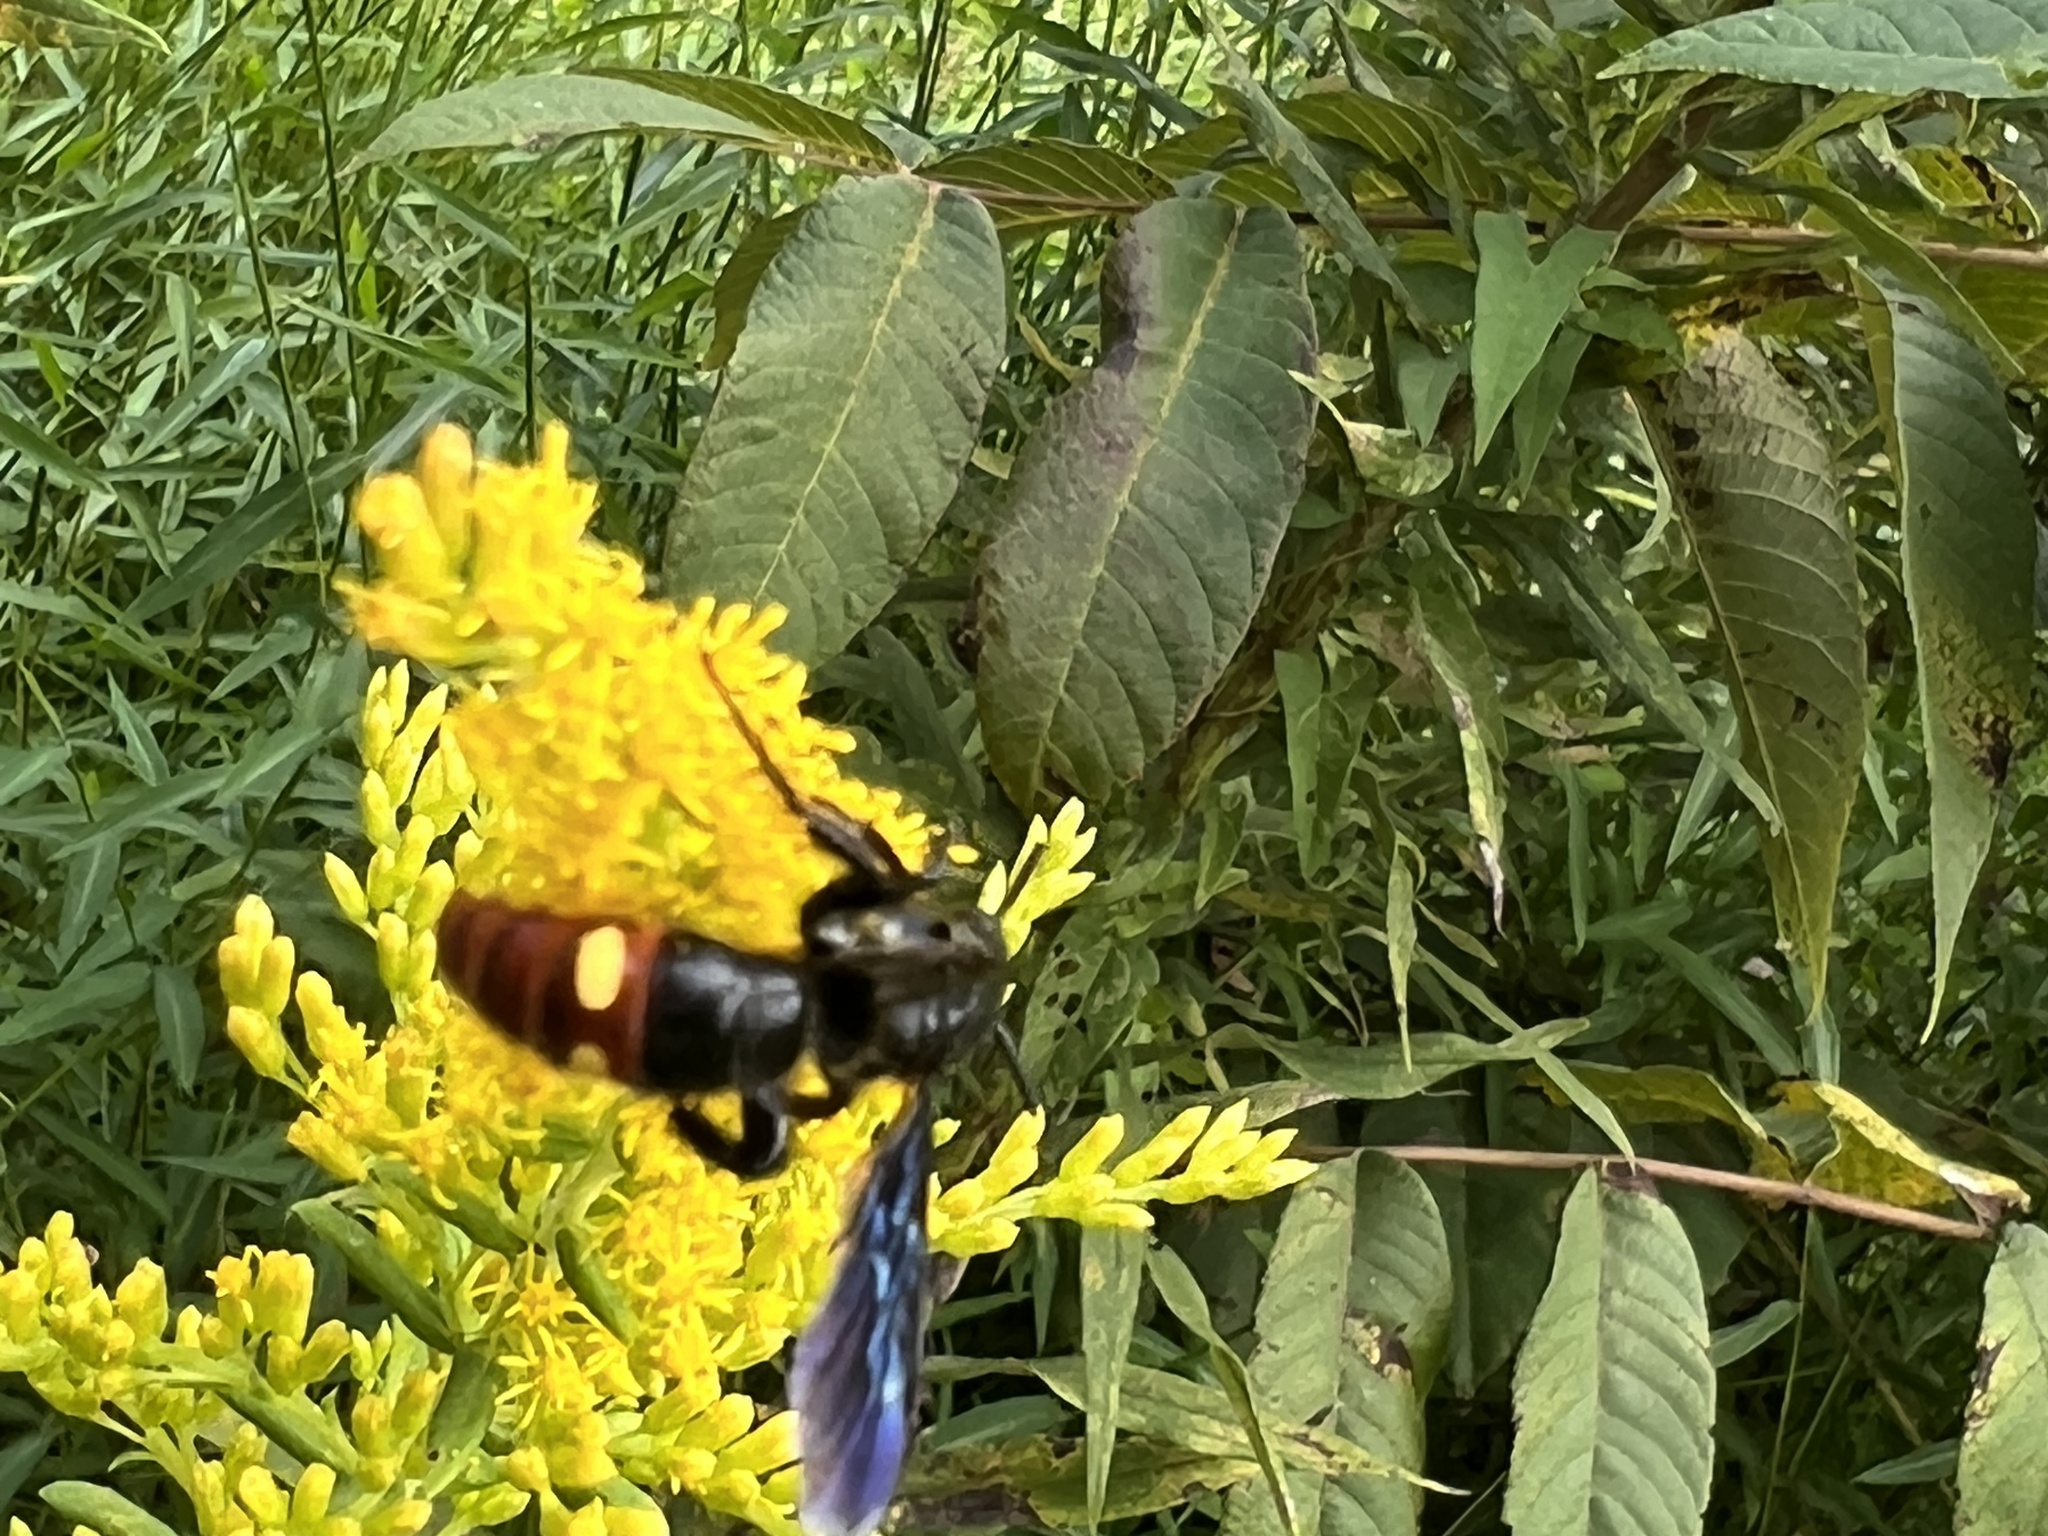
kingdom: Animalia
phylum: Arthropoda
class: Insecta
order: Hymenoptera
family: Scoliidae
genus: Scolia
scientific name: Scolia dubia
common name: Blue-winged scoliid wasp
